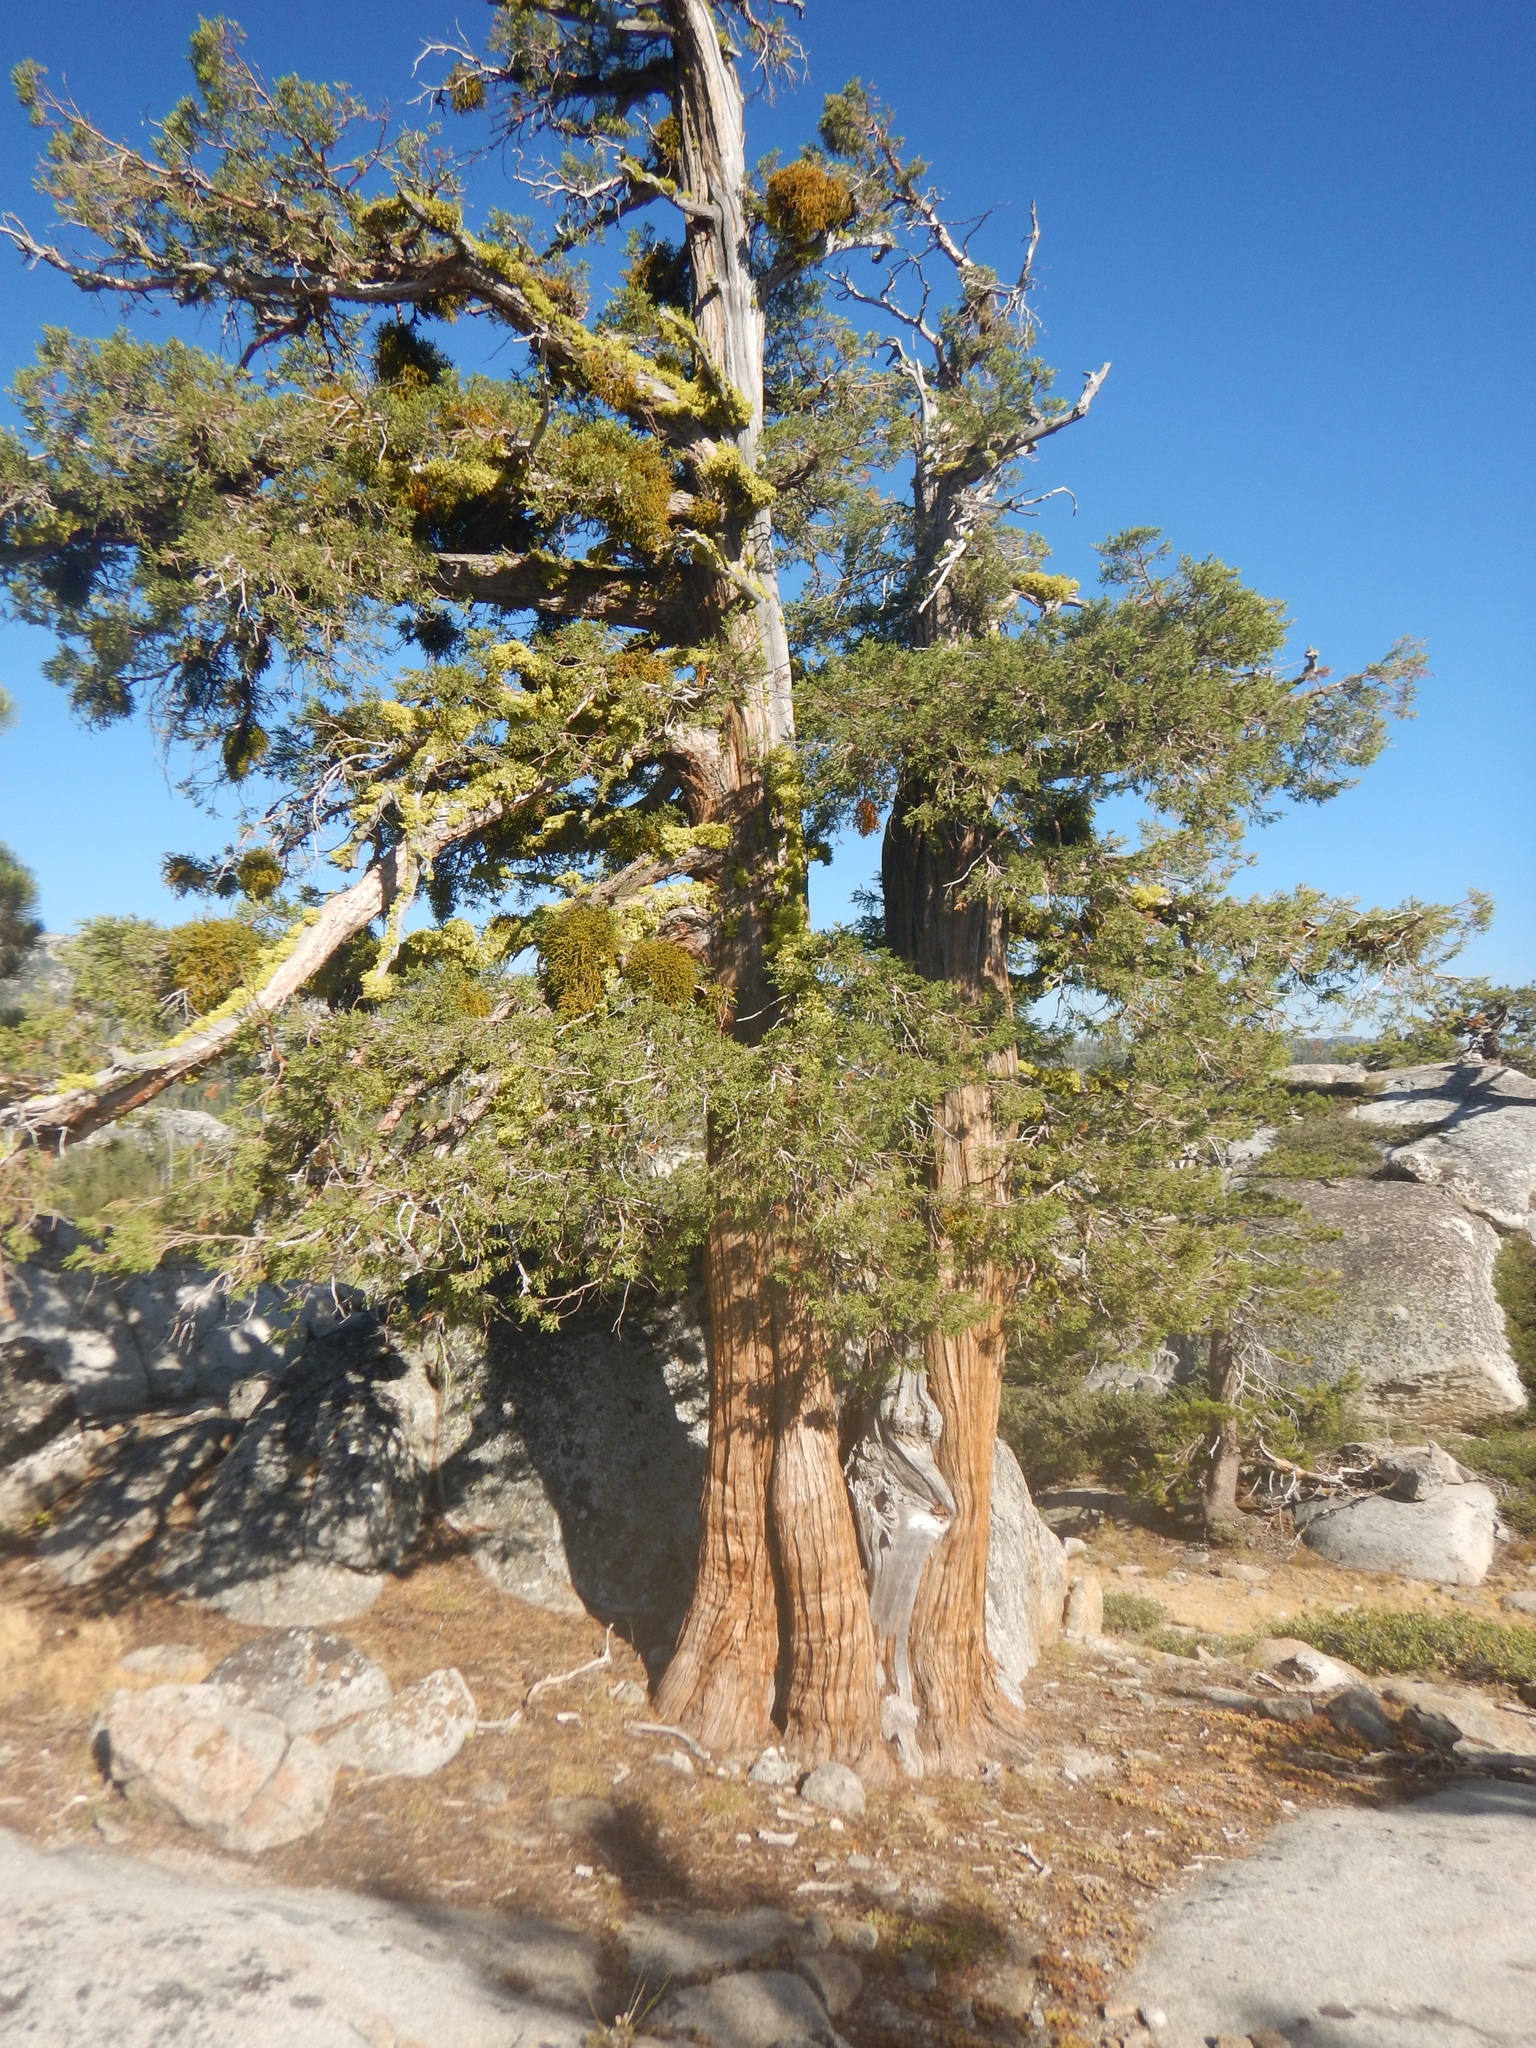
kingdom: Plantae
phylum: Tracheophyta
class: Pinopsida
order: Pinales
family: Cupressaceae
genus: Juniperus
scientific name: Juniperus occidentalis
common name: Western juniper
